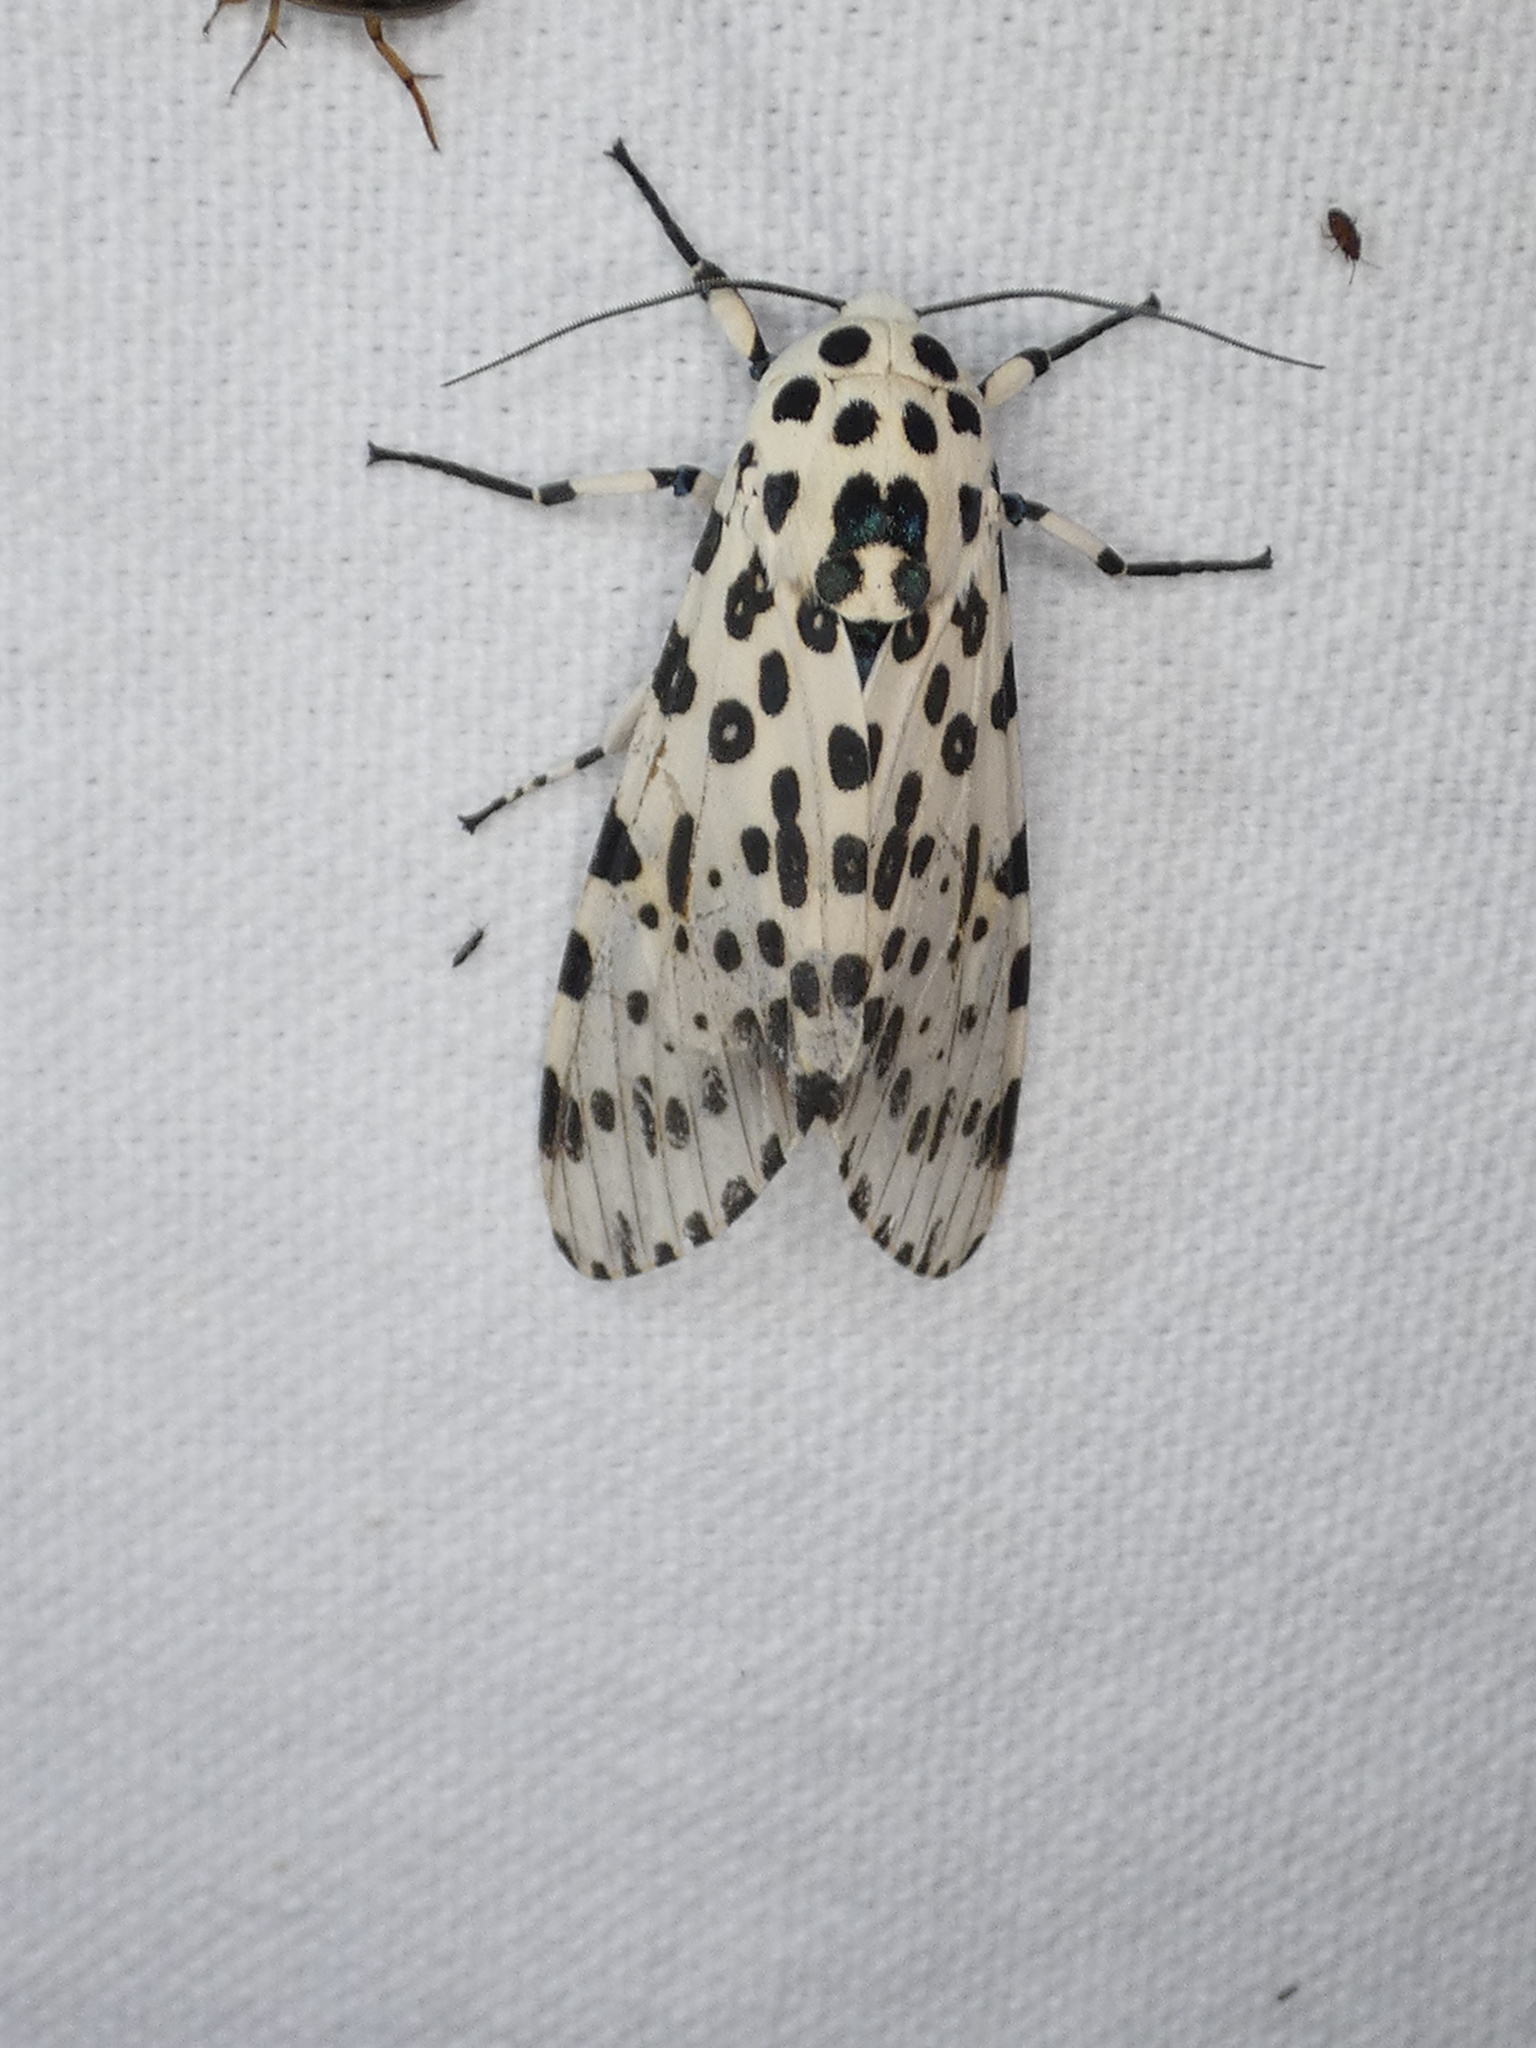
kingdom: Animalia
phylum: Arthropoda
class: Insecta
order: Lepidoptera
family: Erebidae
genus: Hypercompe
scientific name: Hypercompe scribonia
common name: Giant leopard moth
